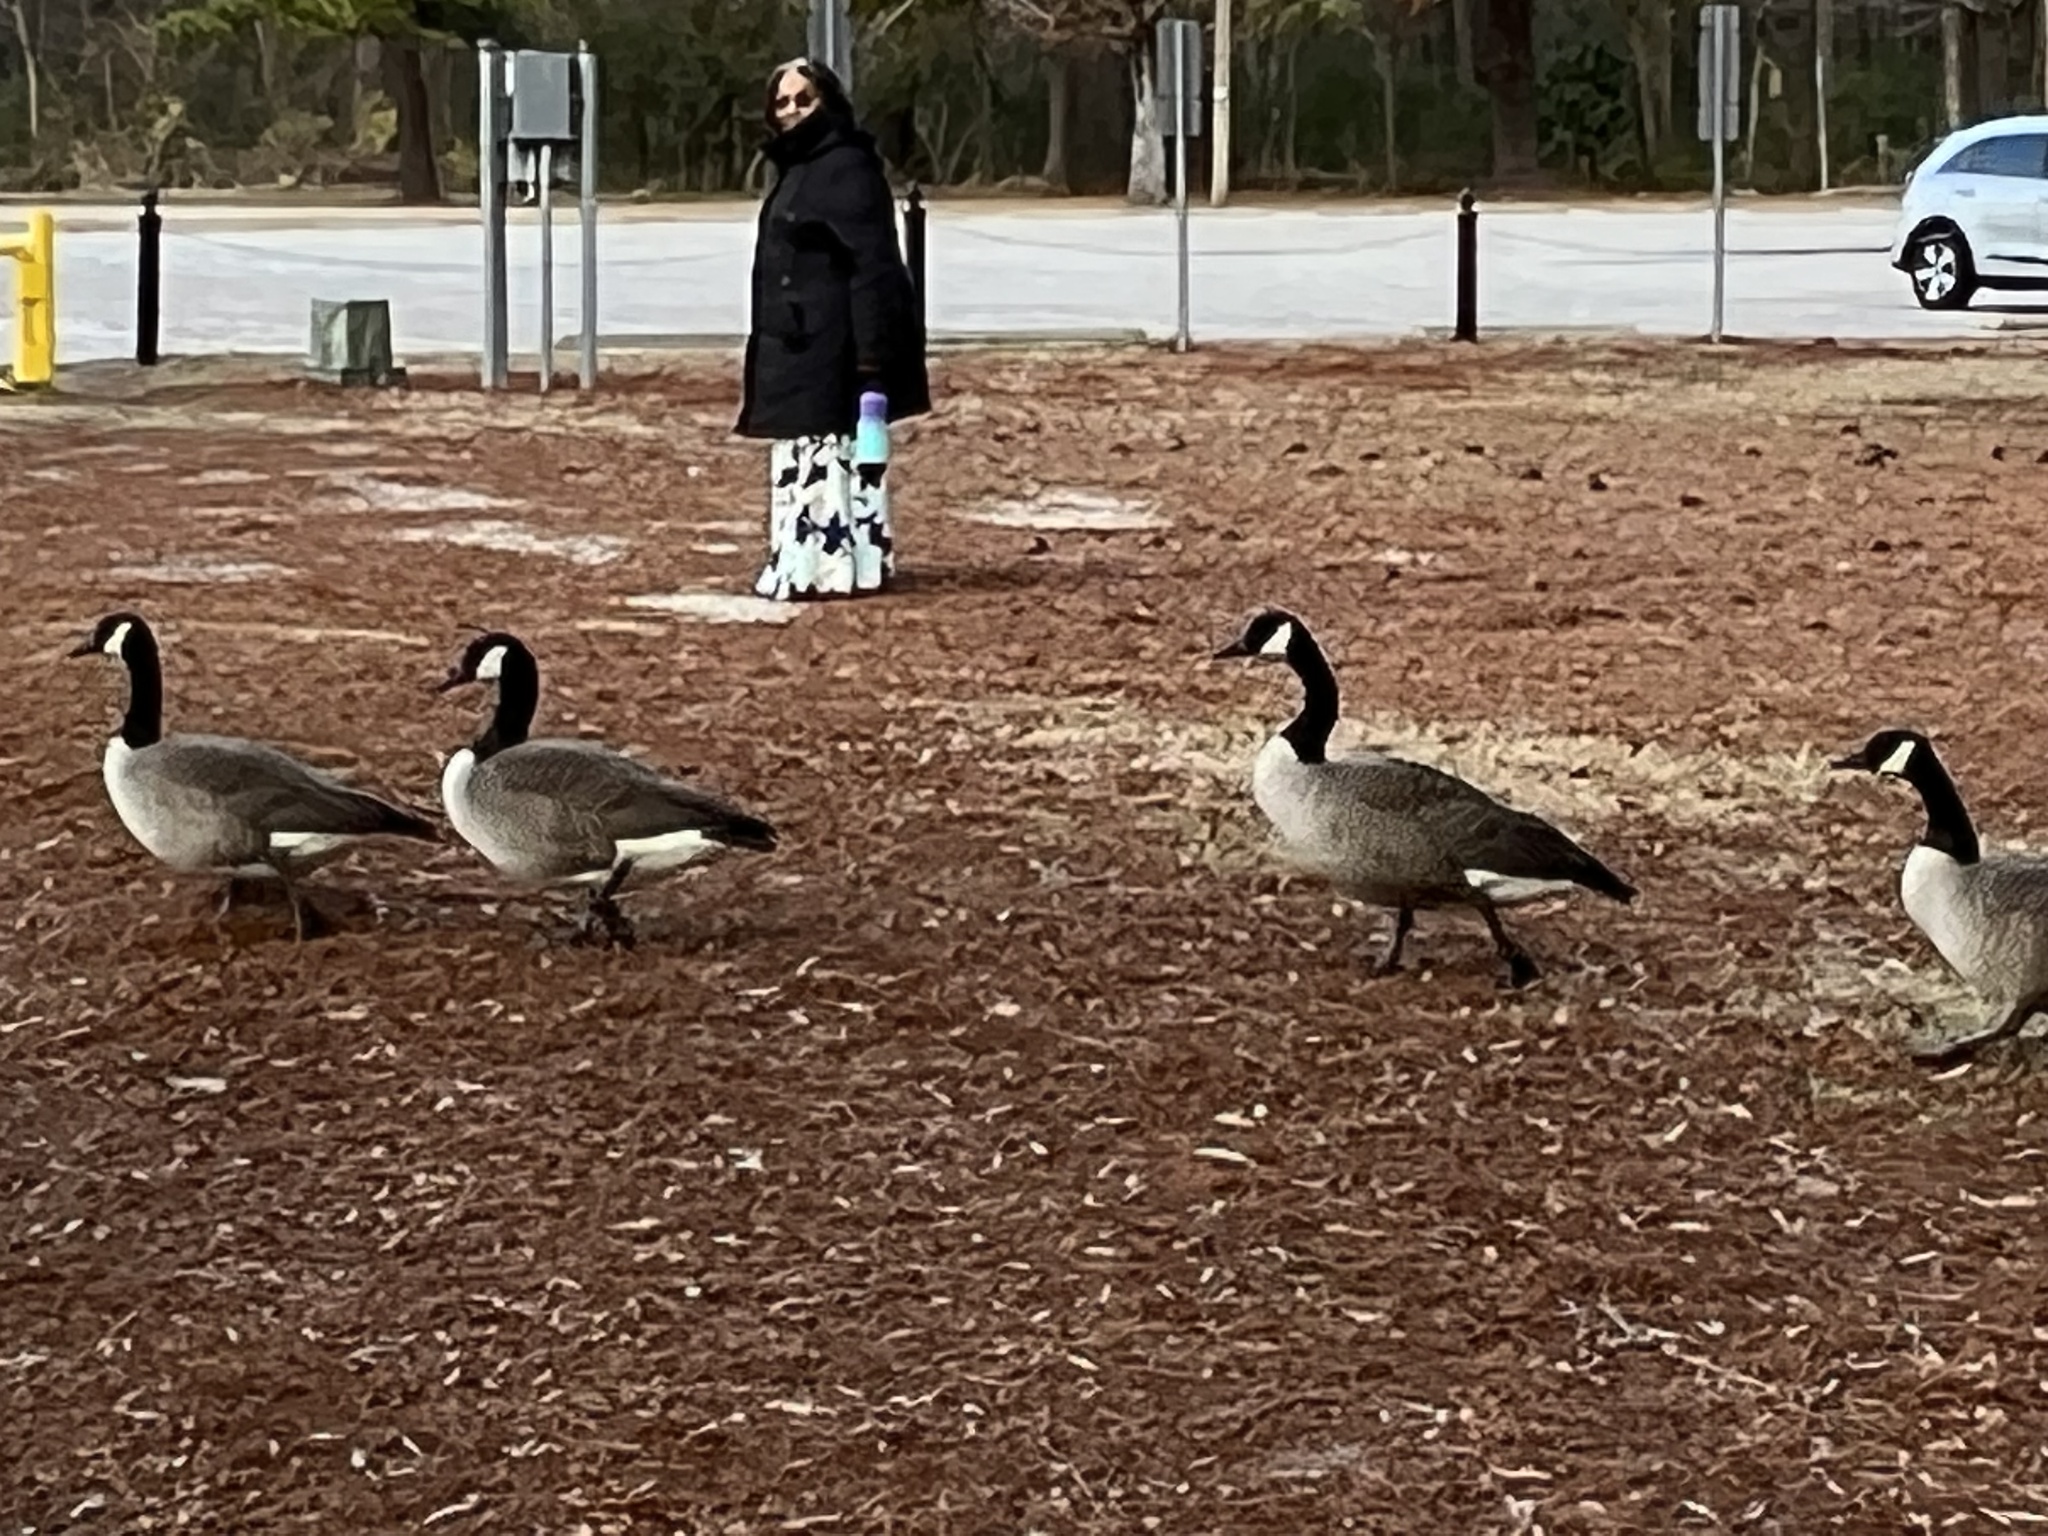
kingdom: Animalia
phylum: Chordata
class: Aves
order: Anseriformes
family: Anatidae
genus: Branta
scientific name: Branta canadensis
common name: Canada goose
